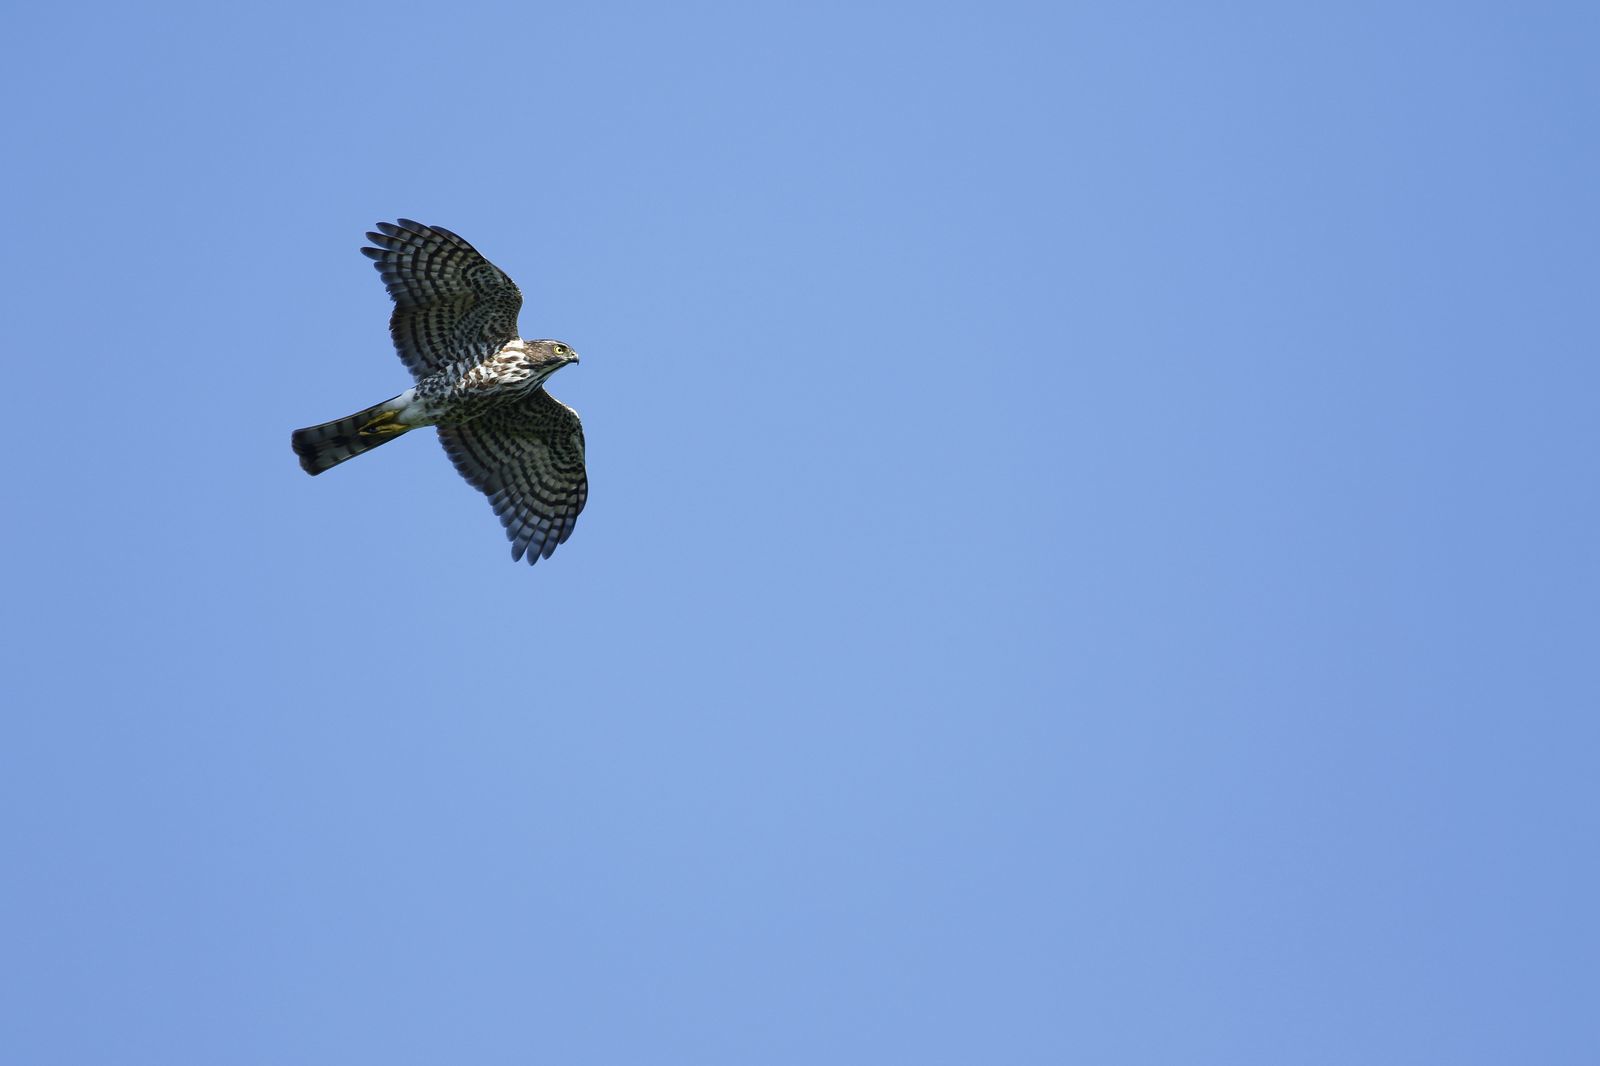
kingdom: Animalia
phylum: Chordata
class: Aves
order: Accipitriformes
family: Accipitridae
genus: Accipiter
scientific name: Accipiter gularis
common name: Japanese sparrowhawk
